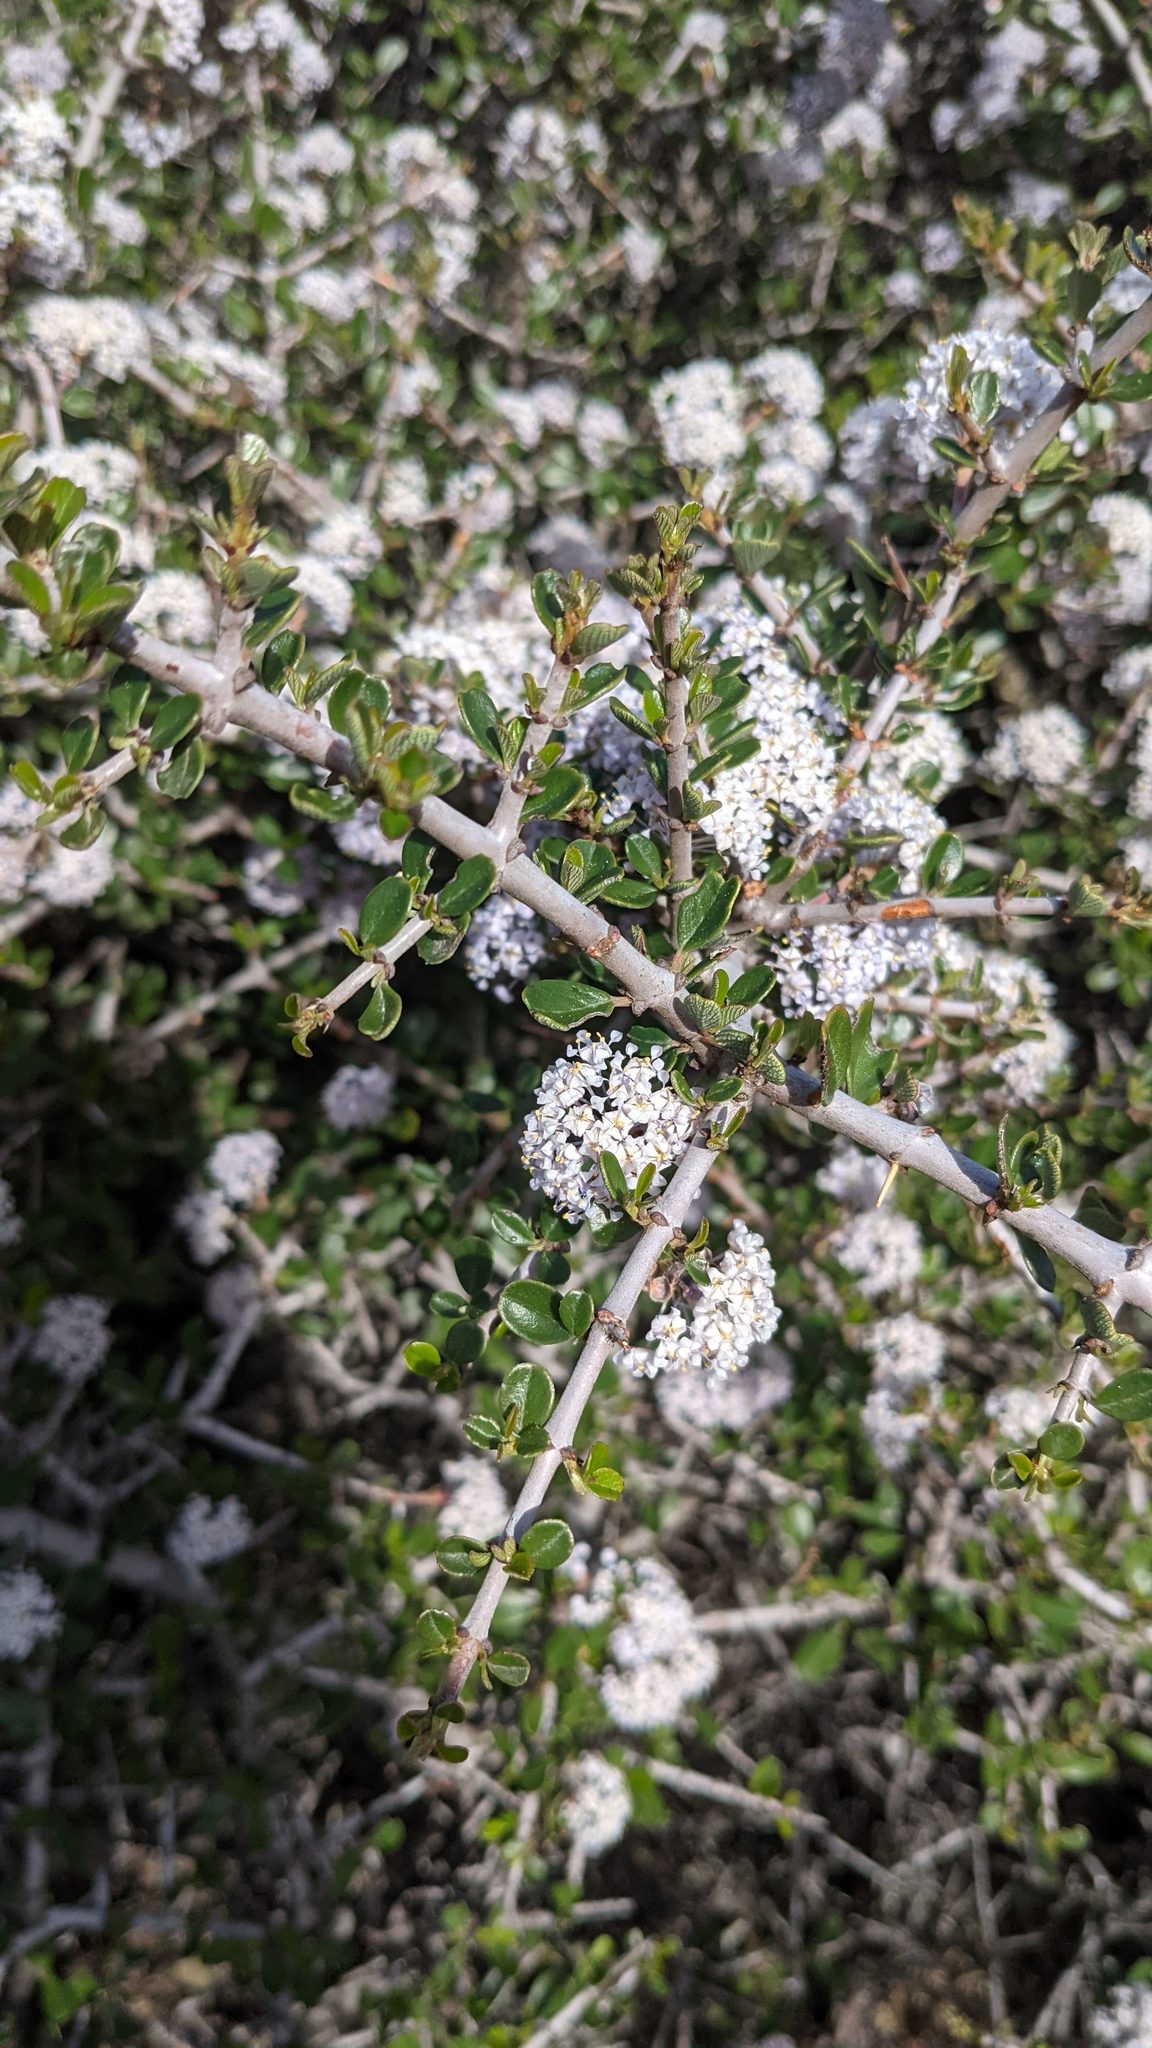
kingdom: Plantae
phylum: Tracheophyta
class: Magnoliopsida
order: Rosales
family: Rhamnaceae
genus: Ceanothus
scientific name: Ceanothus cuneatus
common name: Cuneate ceanothus
